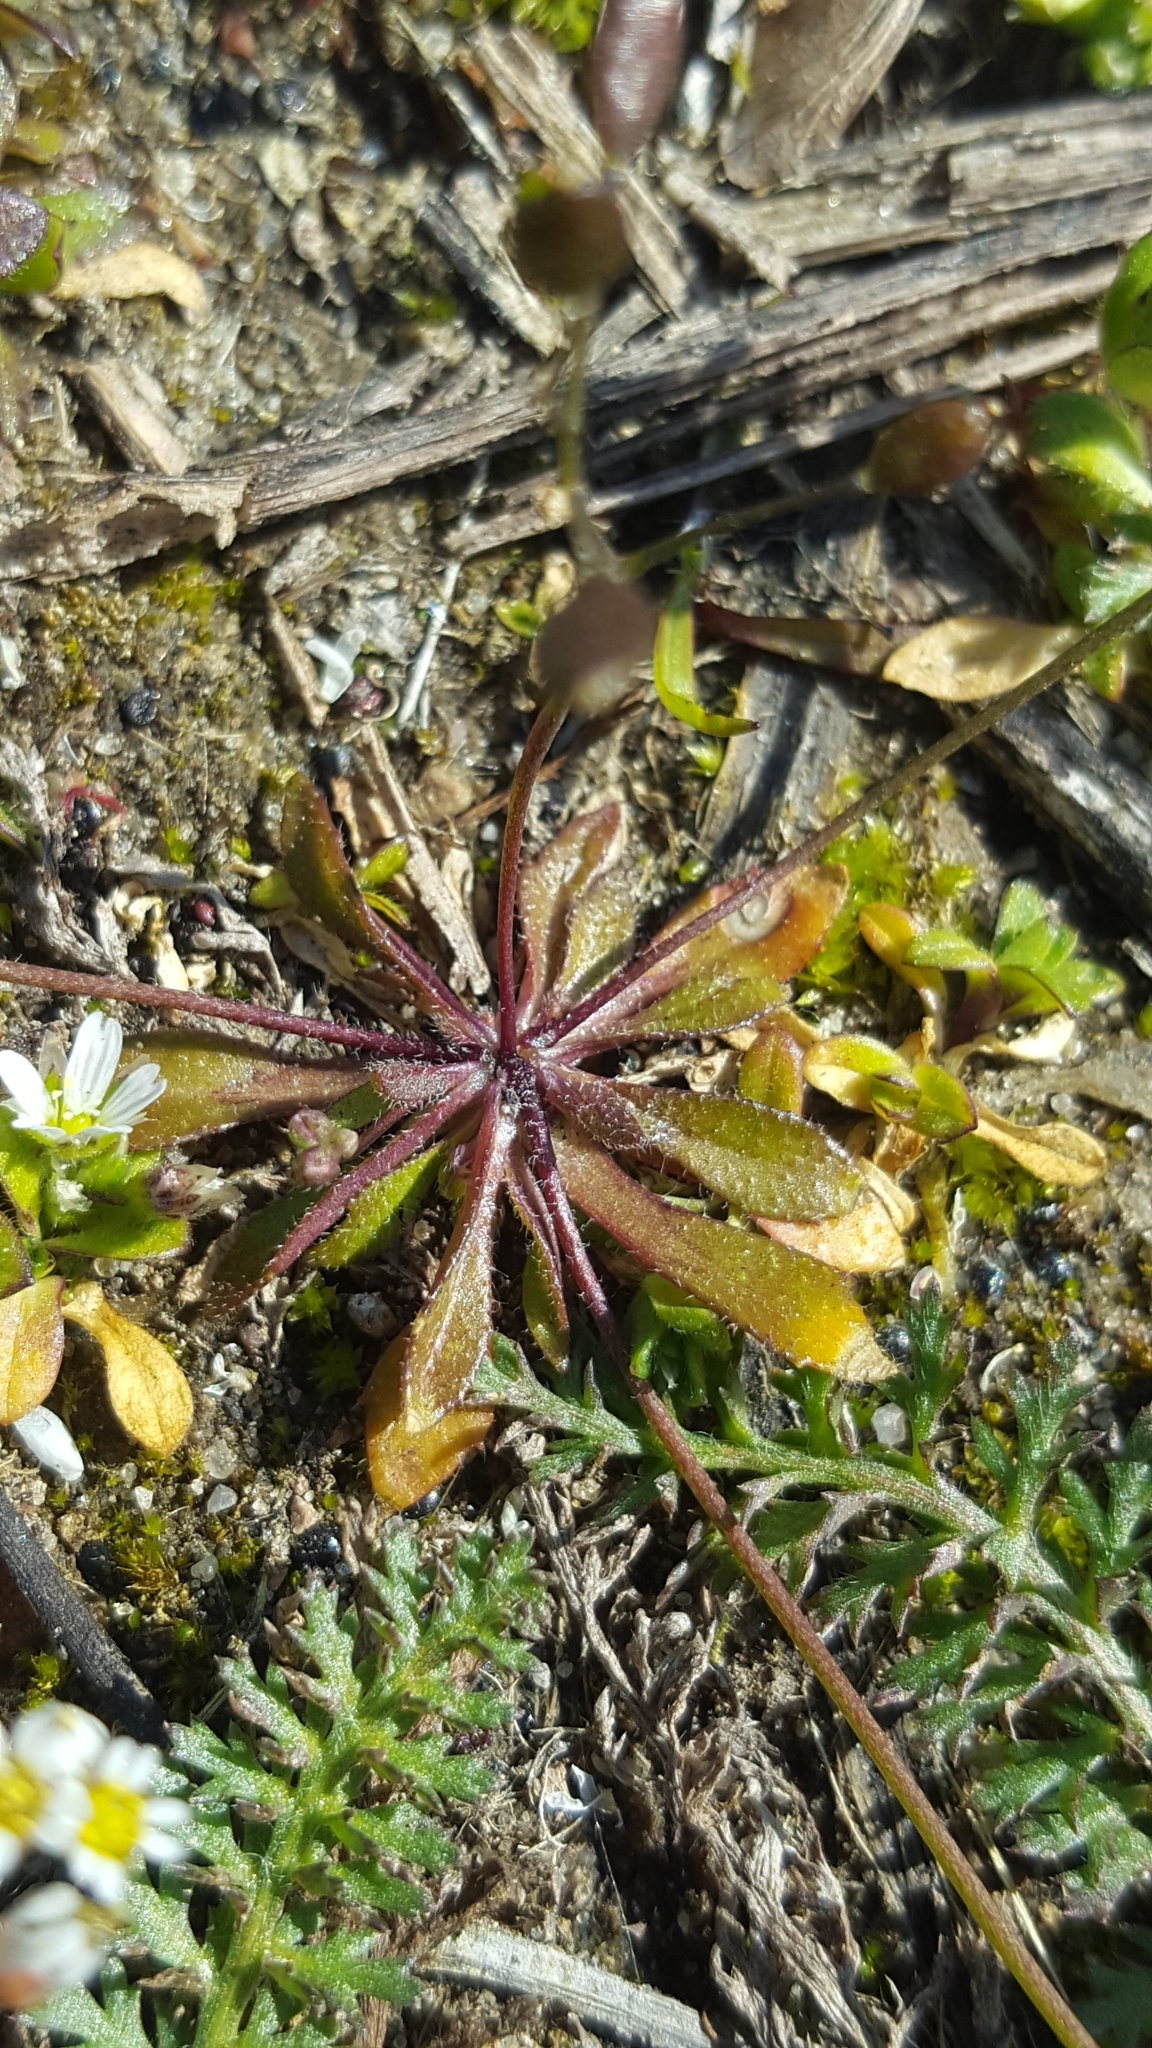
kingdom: Plantae
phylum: Tracheophyta
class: Magnoliopsida
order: Brassicales
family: Brassicaceae
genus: Draba
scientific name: Draba verna
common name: Spring draba
